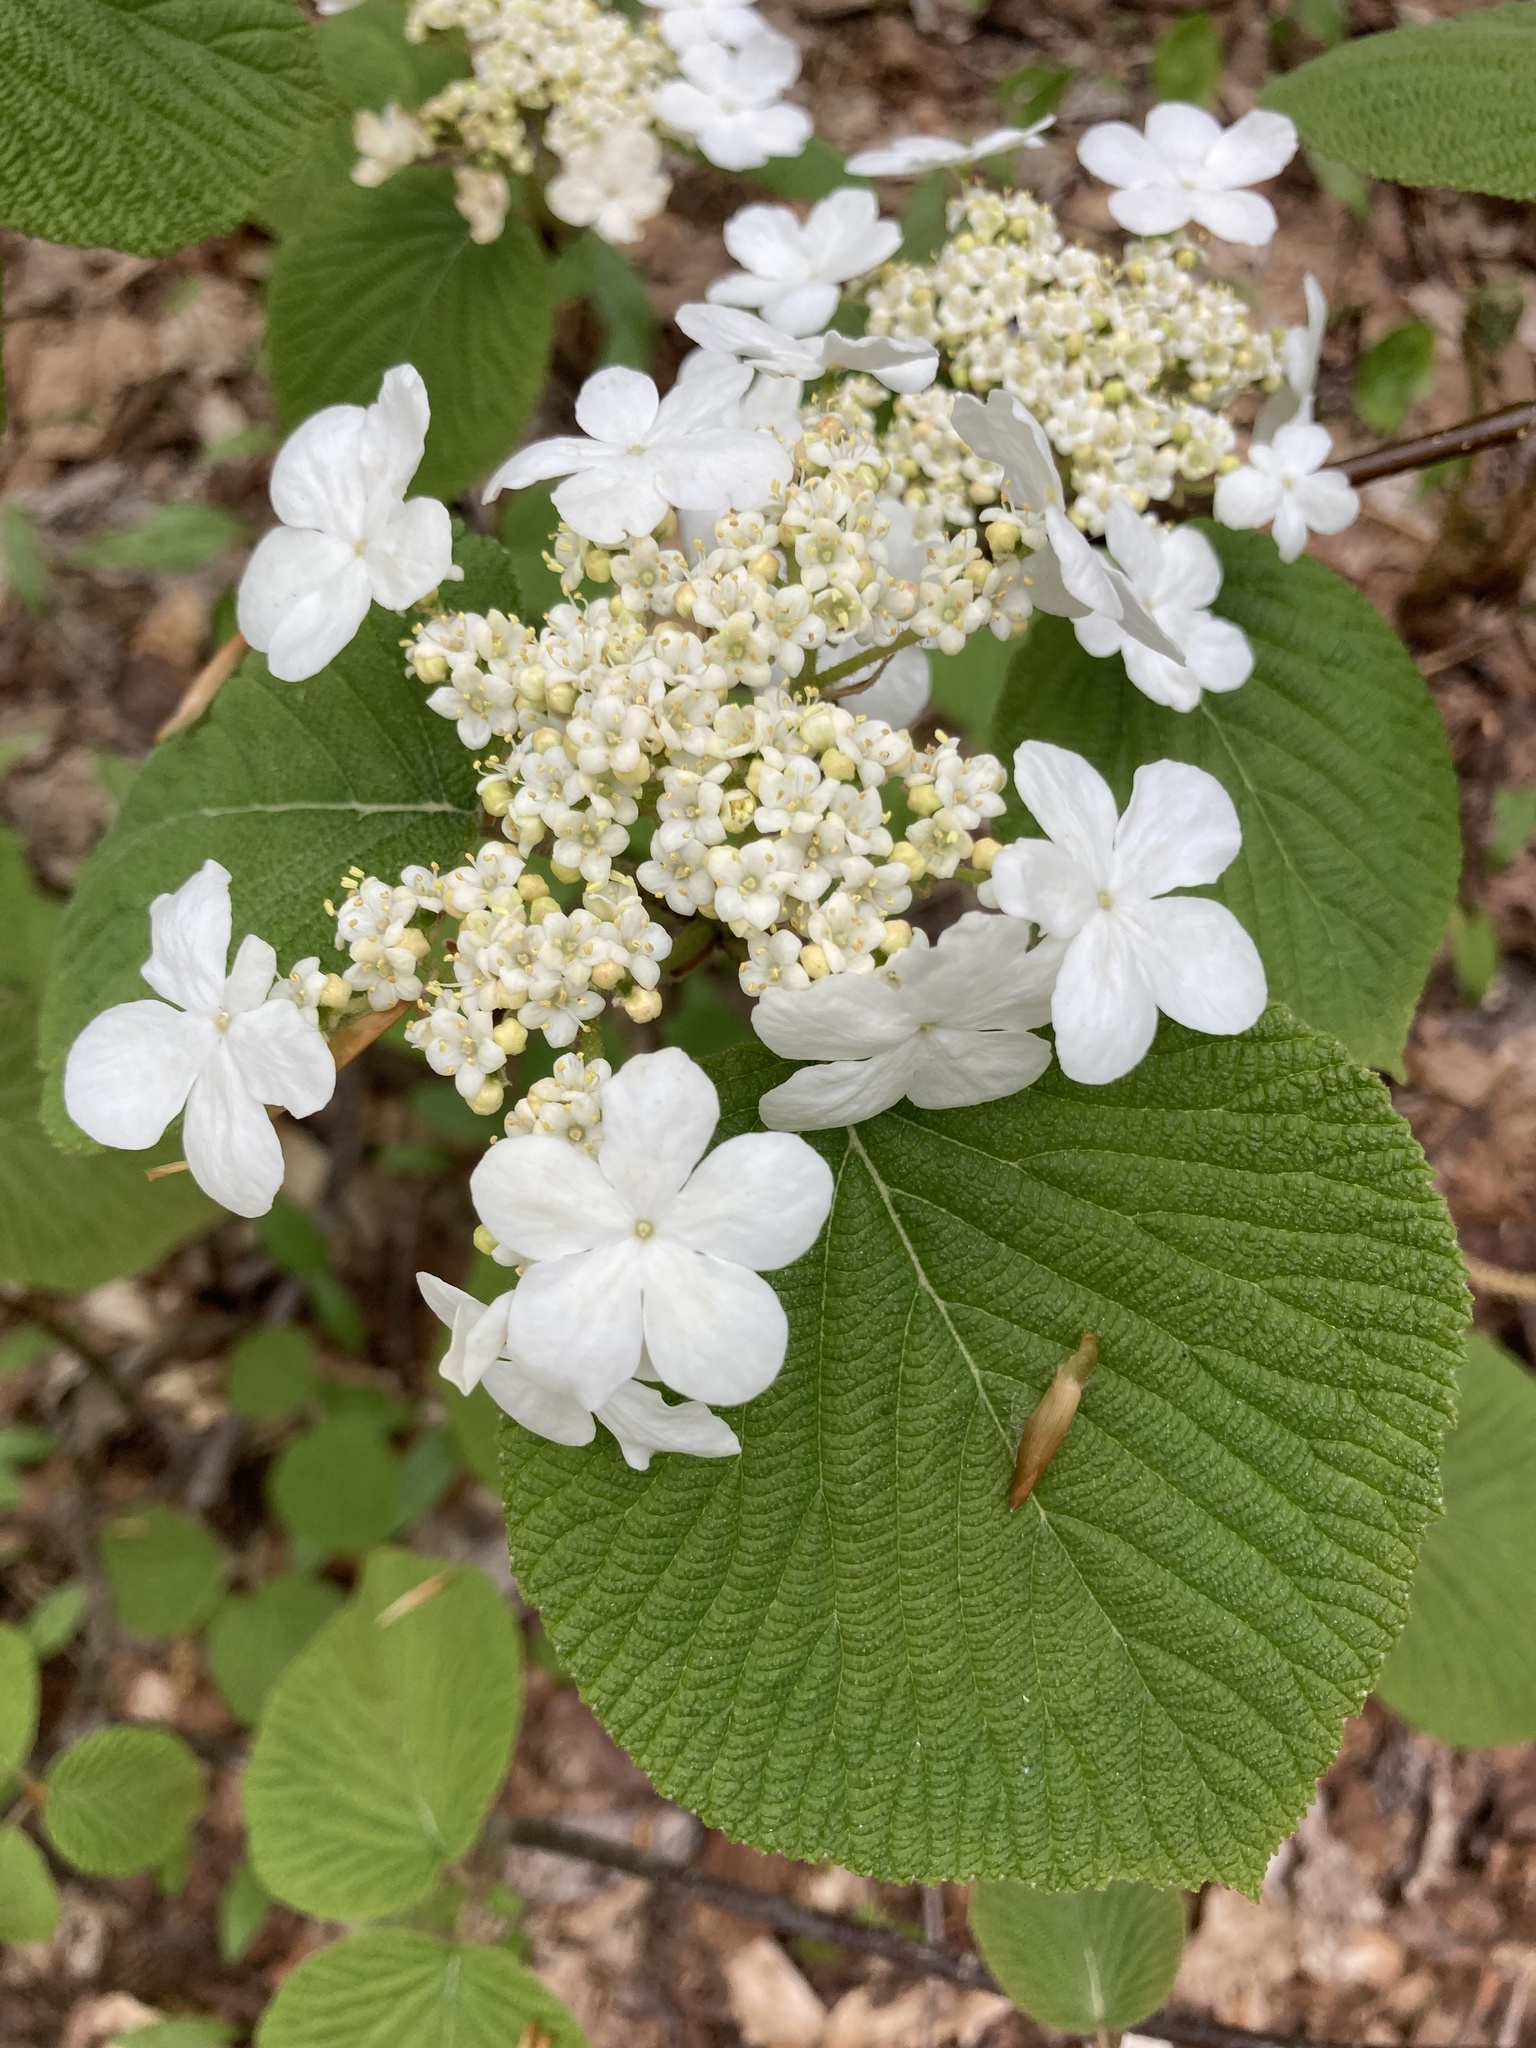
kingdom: Plantae
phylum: Tracheophyta
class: Magnoliopsida
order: Dipsacales
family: Viburnaceae
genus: Viburnum
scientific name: Viburnum lantanoides
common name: Hobblebush
